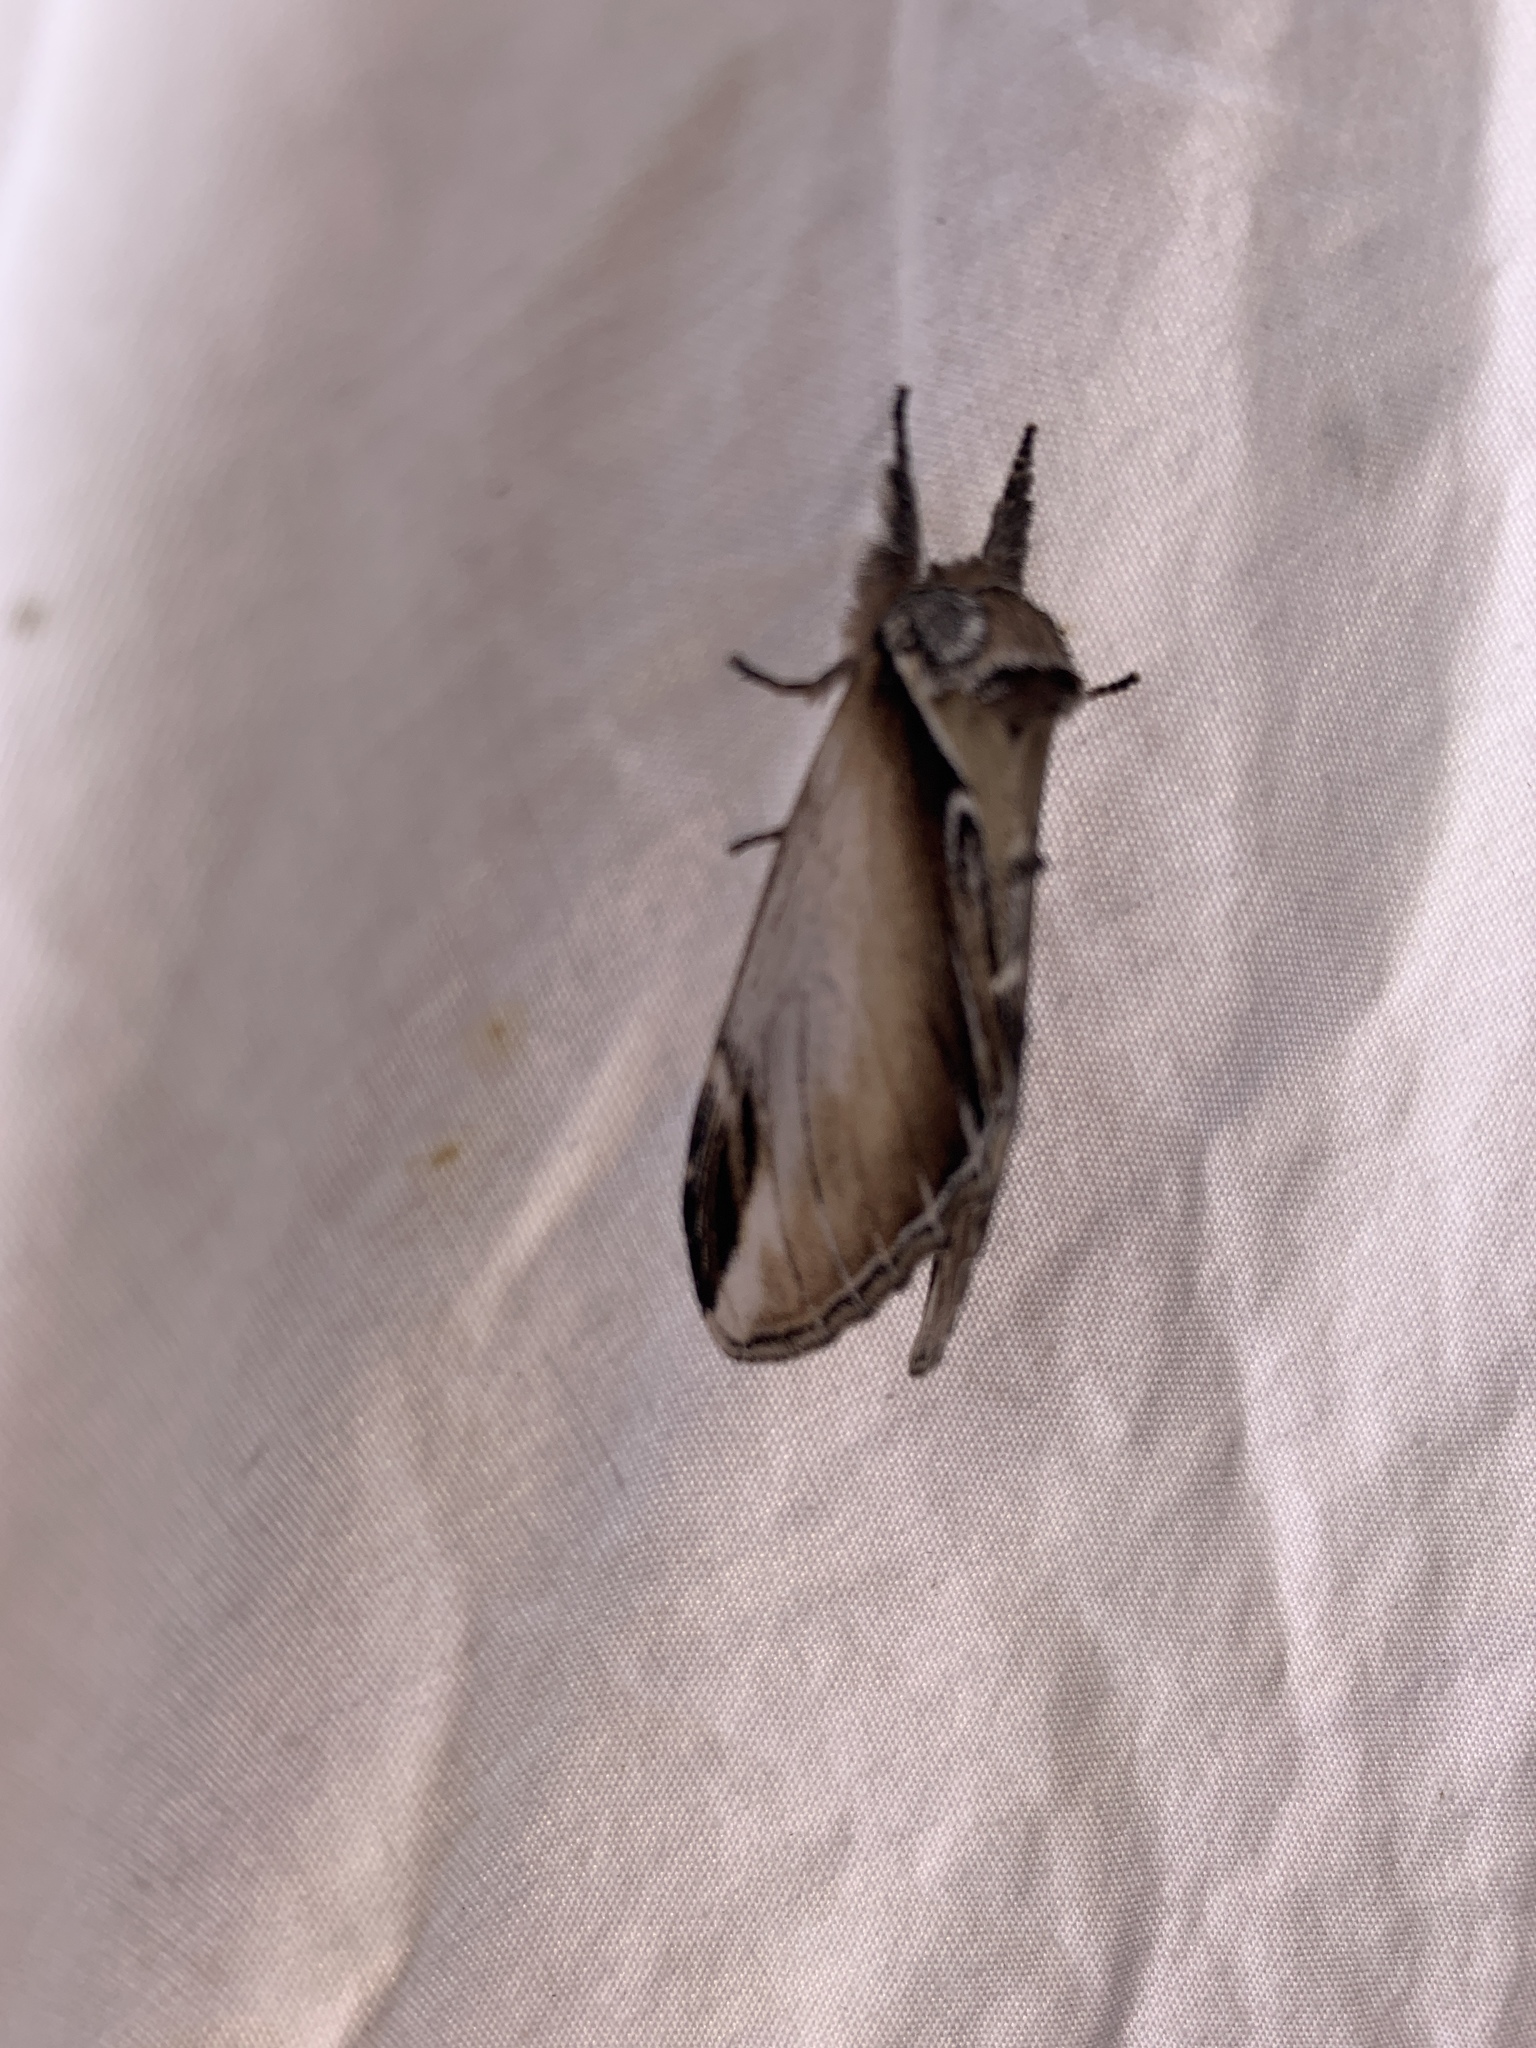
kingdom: Animalia
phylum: Arthropoda
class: Insecta
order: Lepidoptera
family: Notodontidae
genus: Pheosia
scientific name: Pheosia rimosa
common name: Black-rimmed prominent
